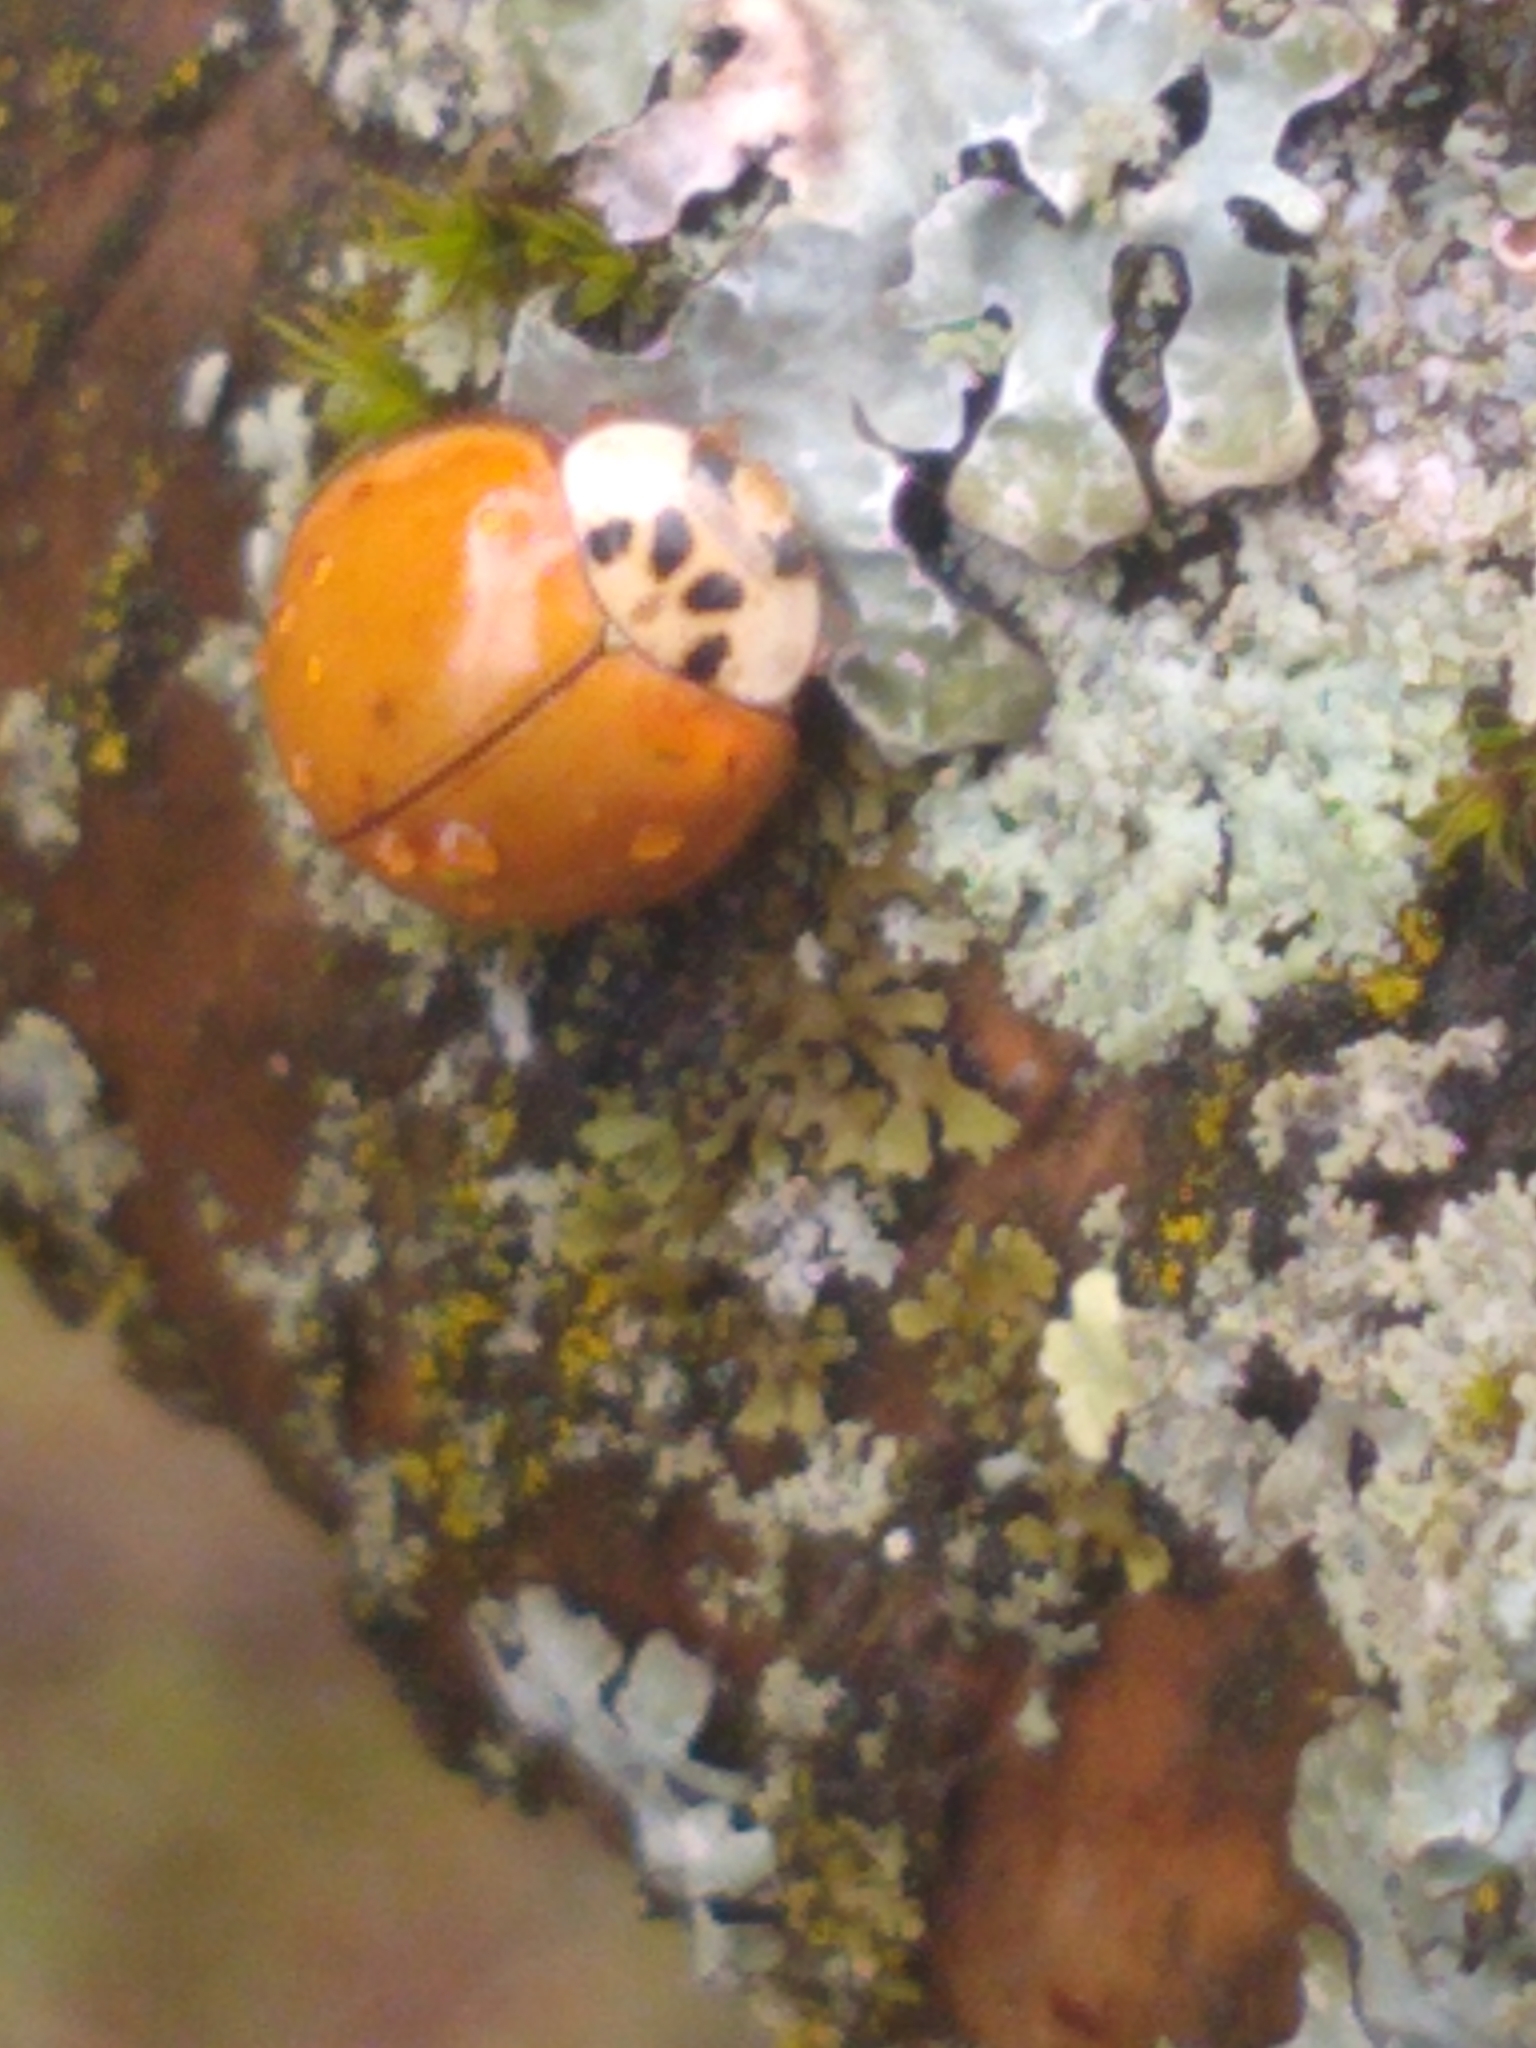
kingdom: Animalia
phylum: Arthropoda
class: Insecta
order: Coleoptera
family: Coccinellidae
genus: Harmonia
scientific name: Harmonia axyridis
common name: Harlequin ladybird
